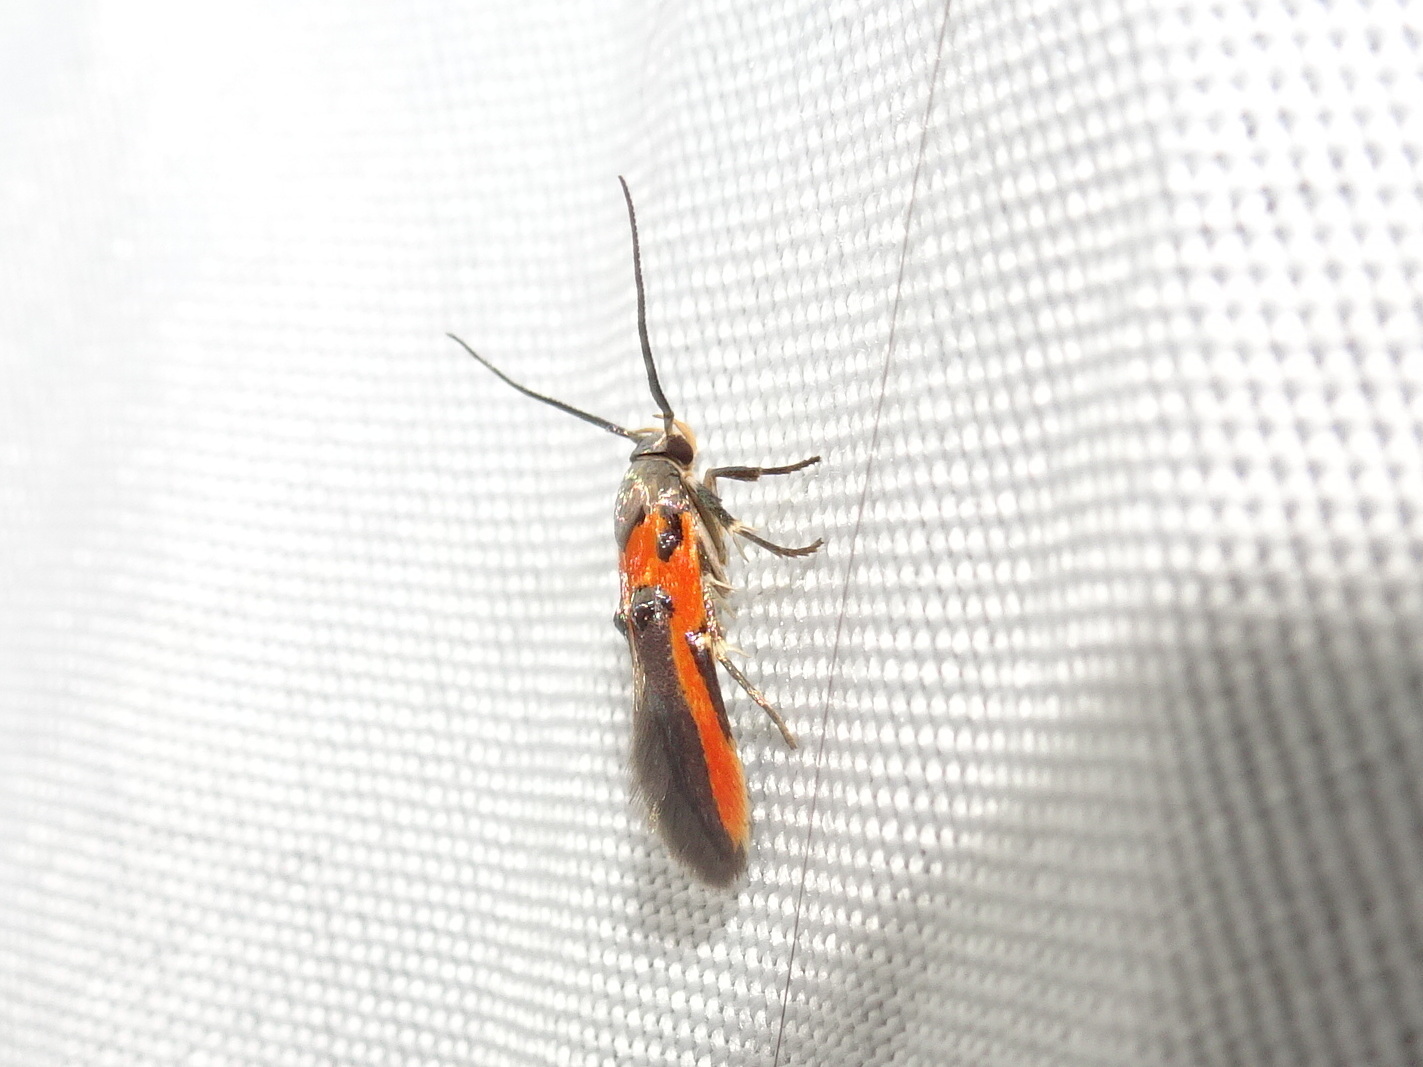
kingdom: Animalia
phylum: Arthropoda
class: Insecta
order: Lepidoptera
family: Cosmopterigidae
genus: Euclemensia
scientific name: Euclemensia bassettella
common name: Kermes scale moth
